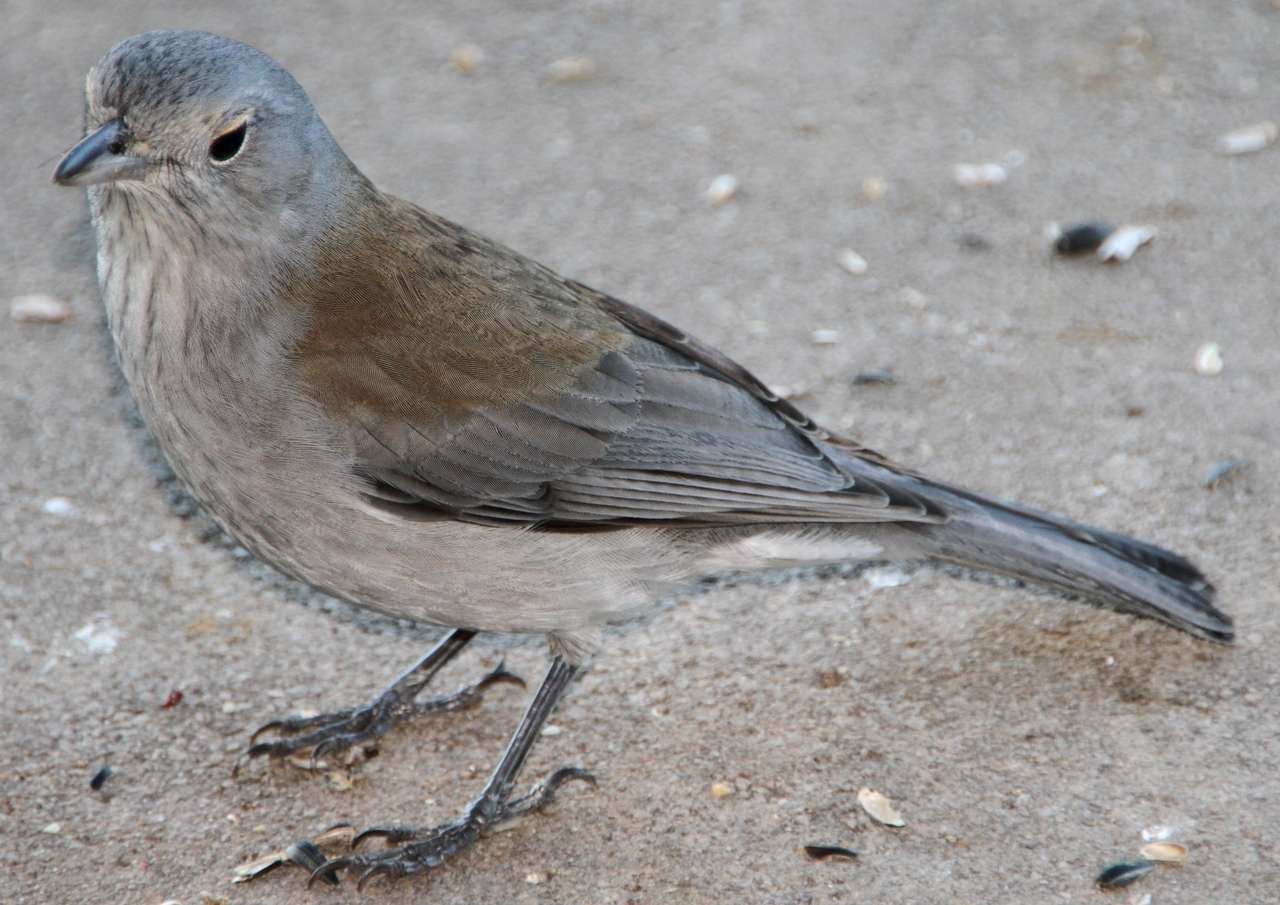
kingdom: Animalia
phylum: Chordata
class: Aves
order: Passeriformes
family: Pachycephalidae
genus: Colluricincla
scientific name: Colluricincla harmonica
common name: Grey shrikethrush
